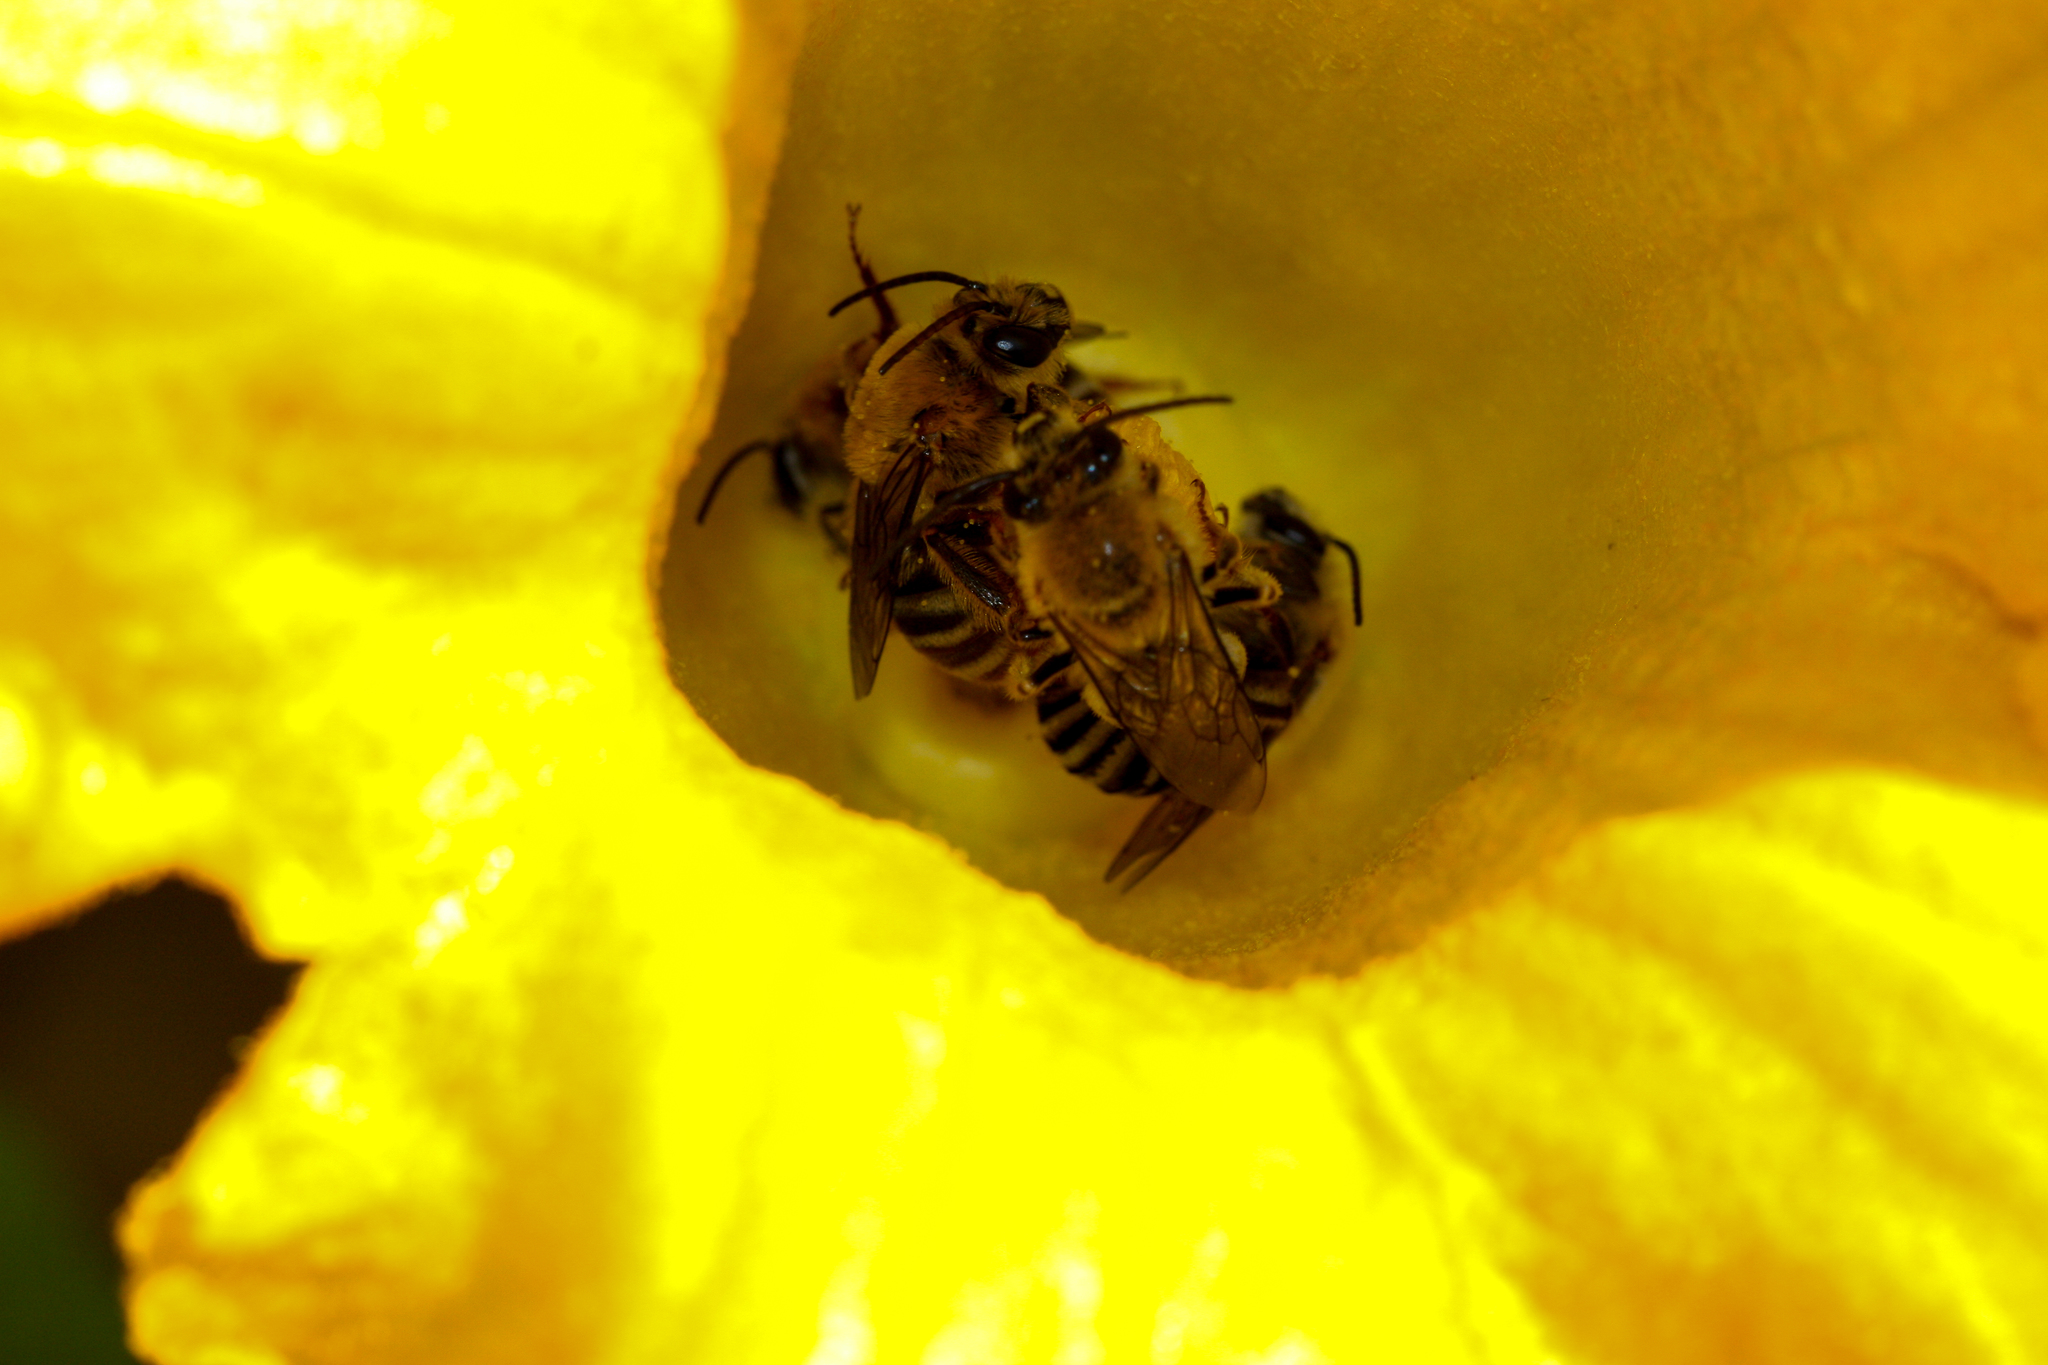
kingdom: Animalia
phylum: Arthropoda
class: Insecta
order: Hymenoptera
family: Apidae
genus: Peponapis
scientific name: Peponapis pruinosa
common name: Pruinose squash bee
